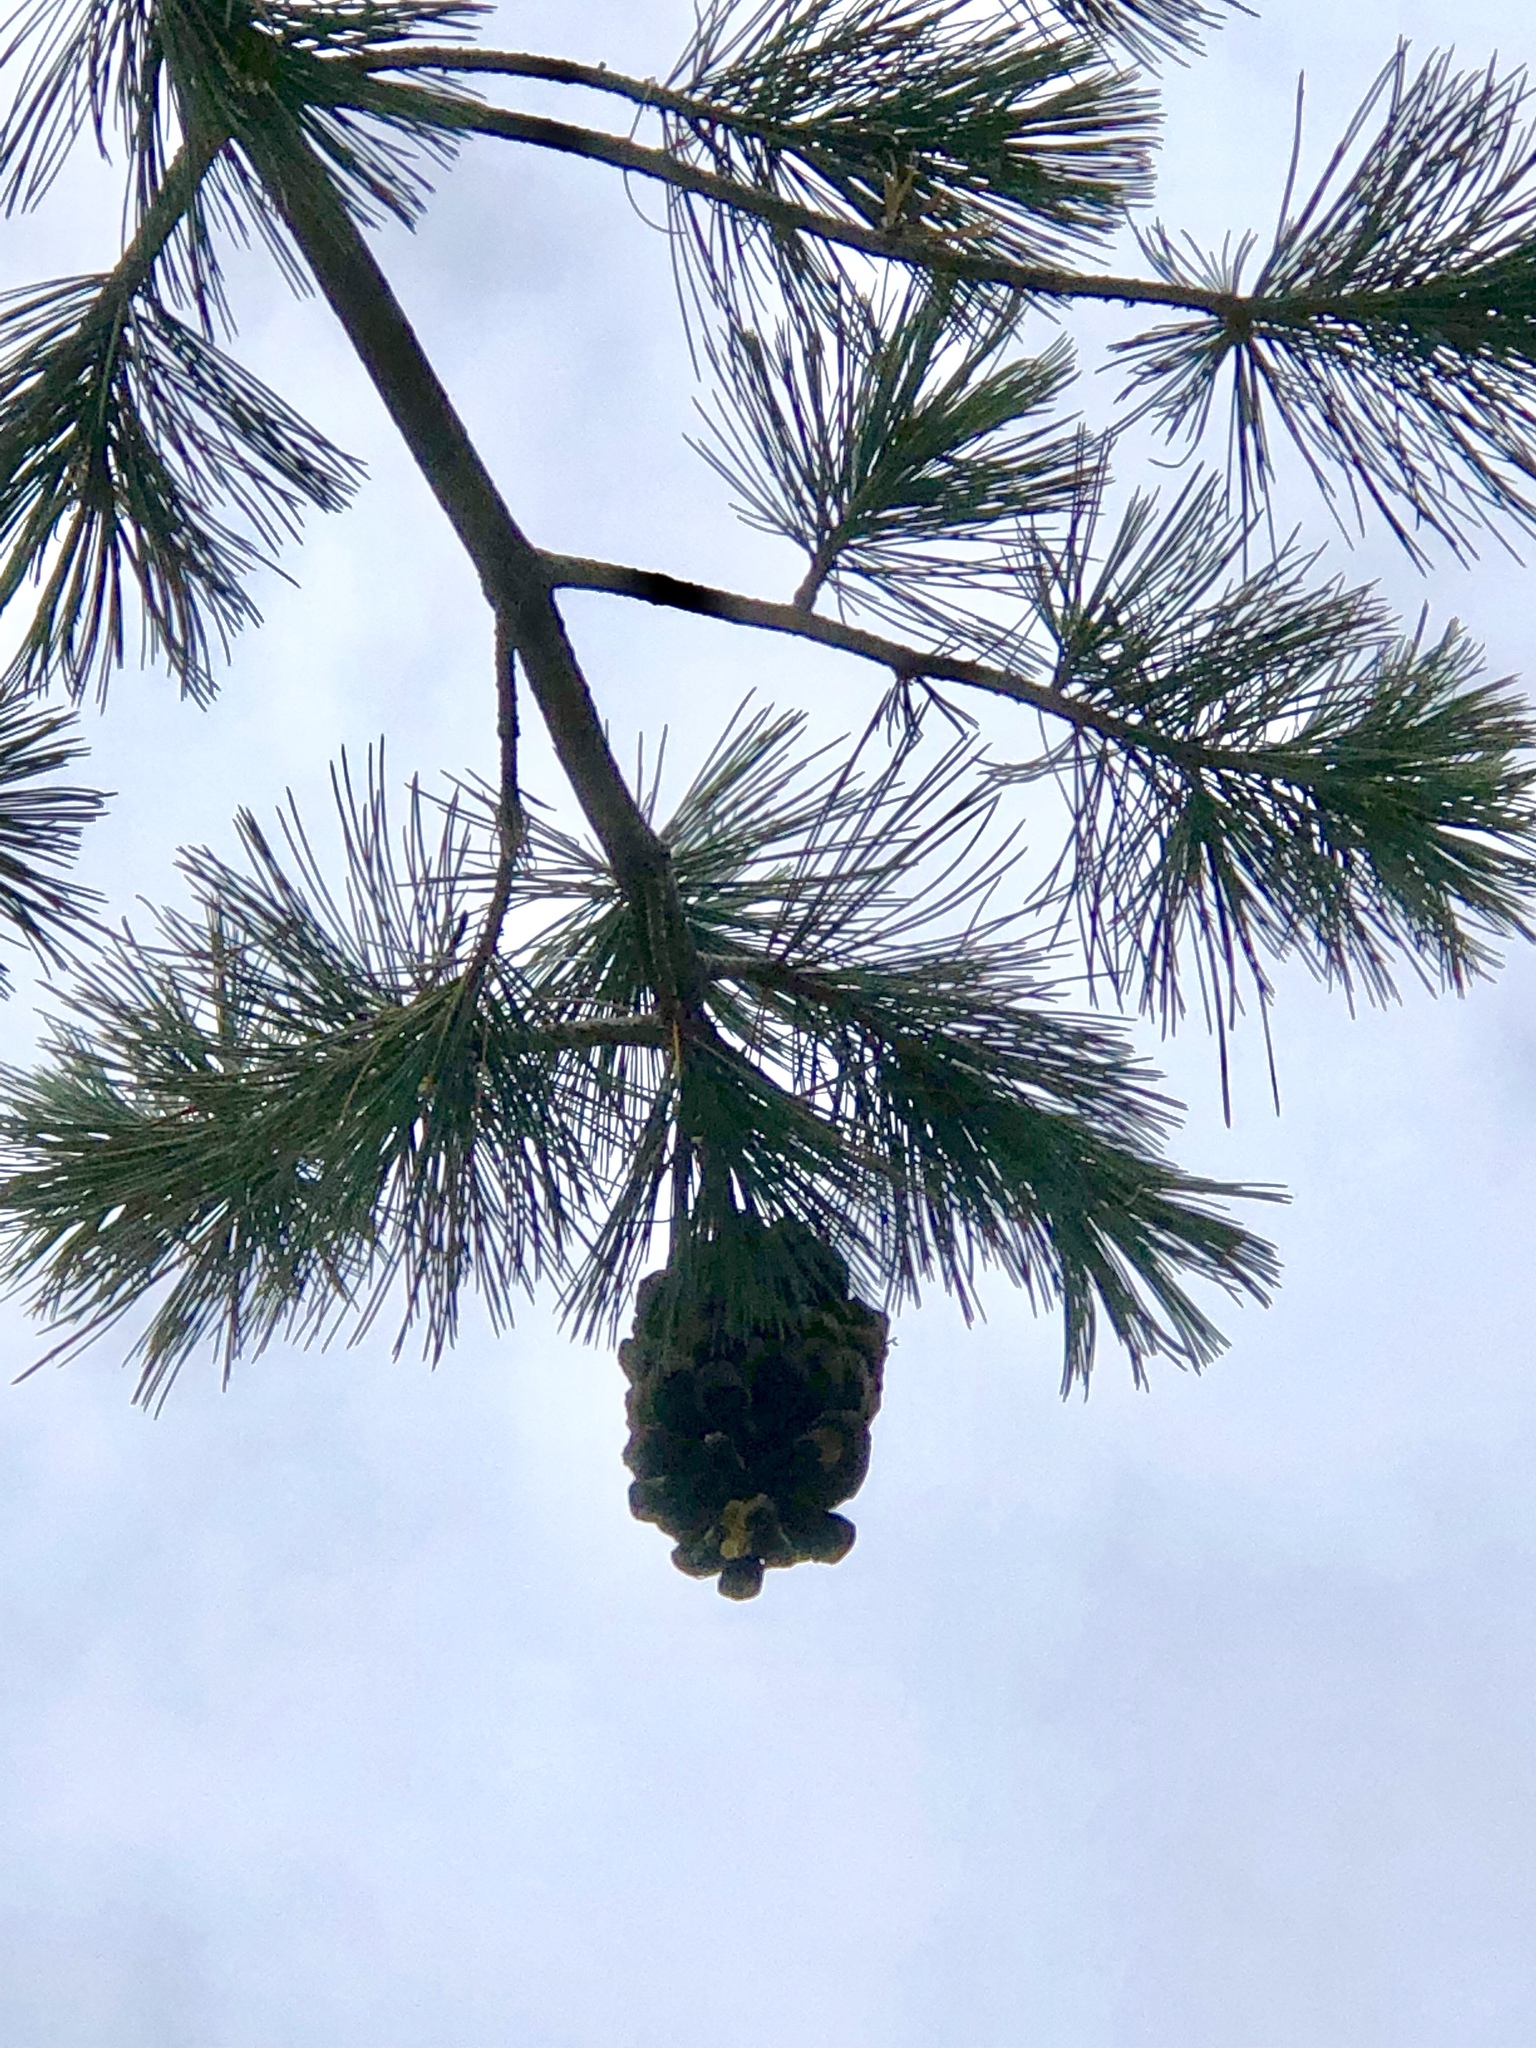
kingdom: Plantae
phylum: Tracheophyta
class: Pinopsida
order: Pinales
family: Pinaceae
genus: Pinus
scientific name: Pinus strobiformis
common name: Southwestern white pine
